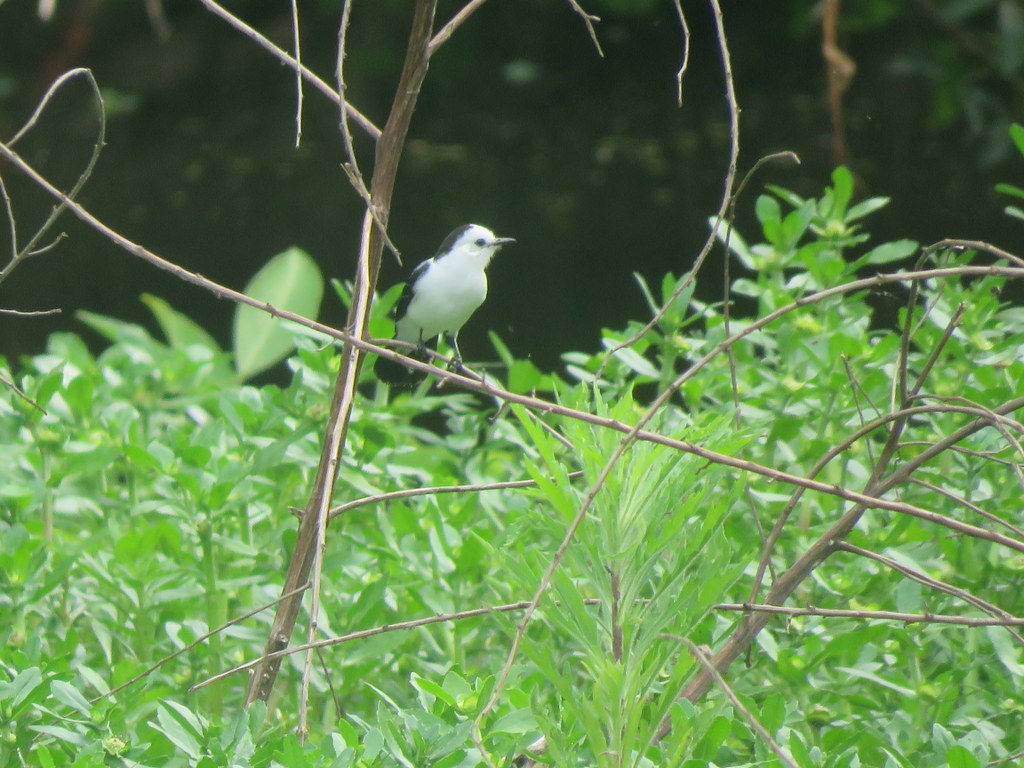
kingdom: Animalia
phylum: Chordata
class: Aves
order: Passeriformes
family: Tyrannidae
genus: Fluvicola
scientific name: Fluvicola pica
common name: Pied water-tyrant
